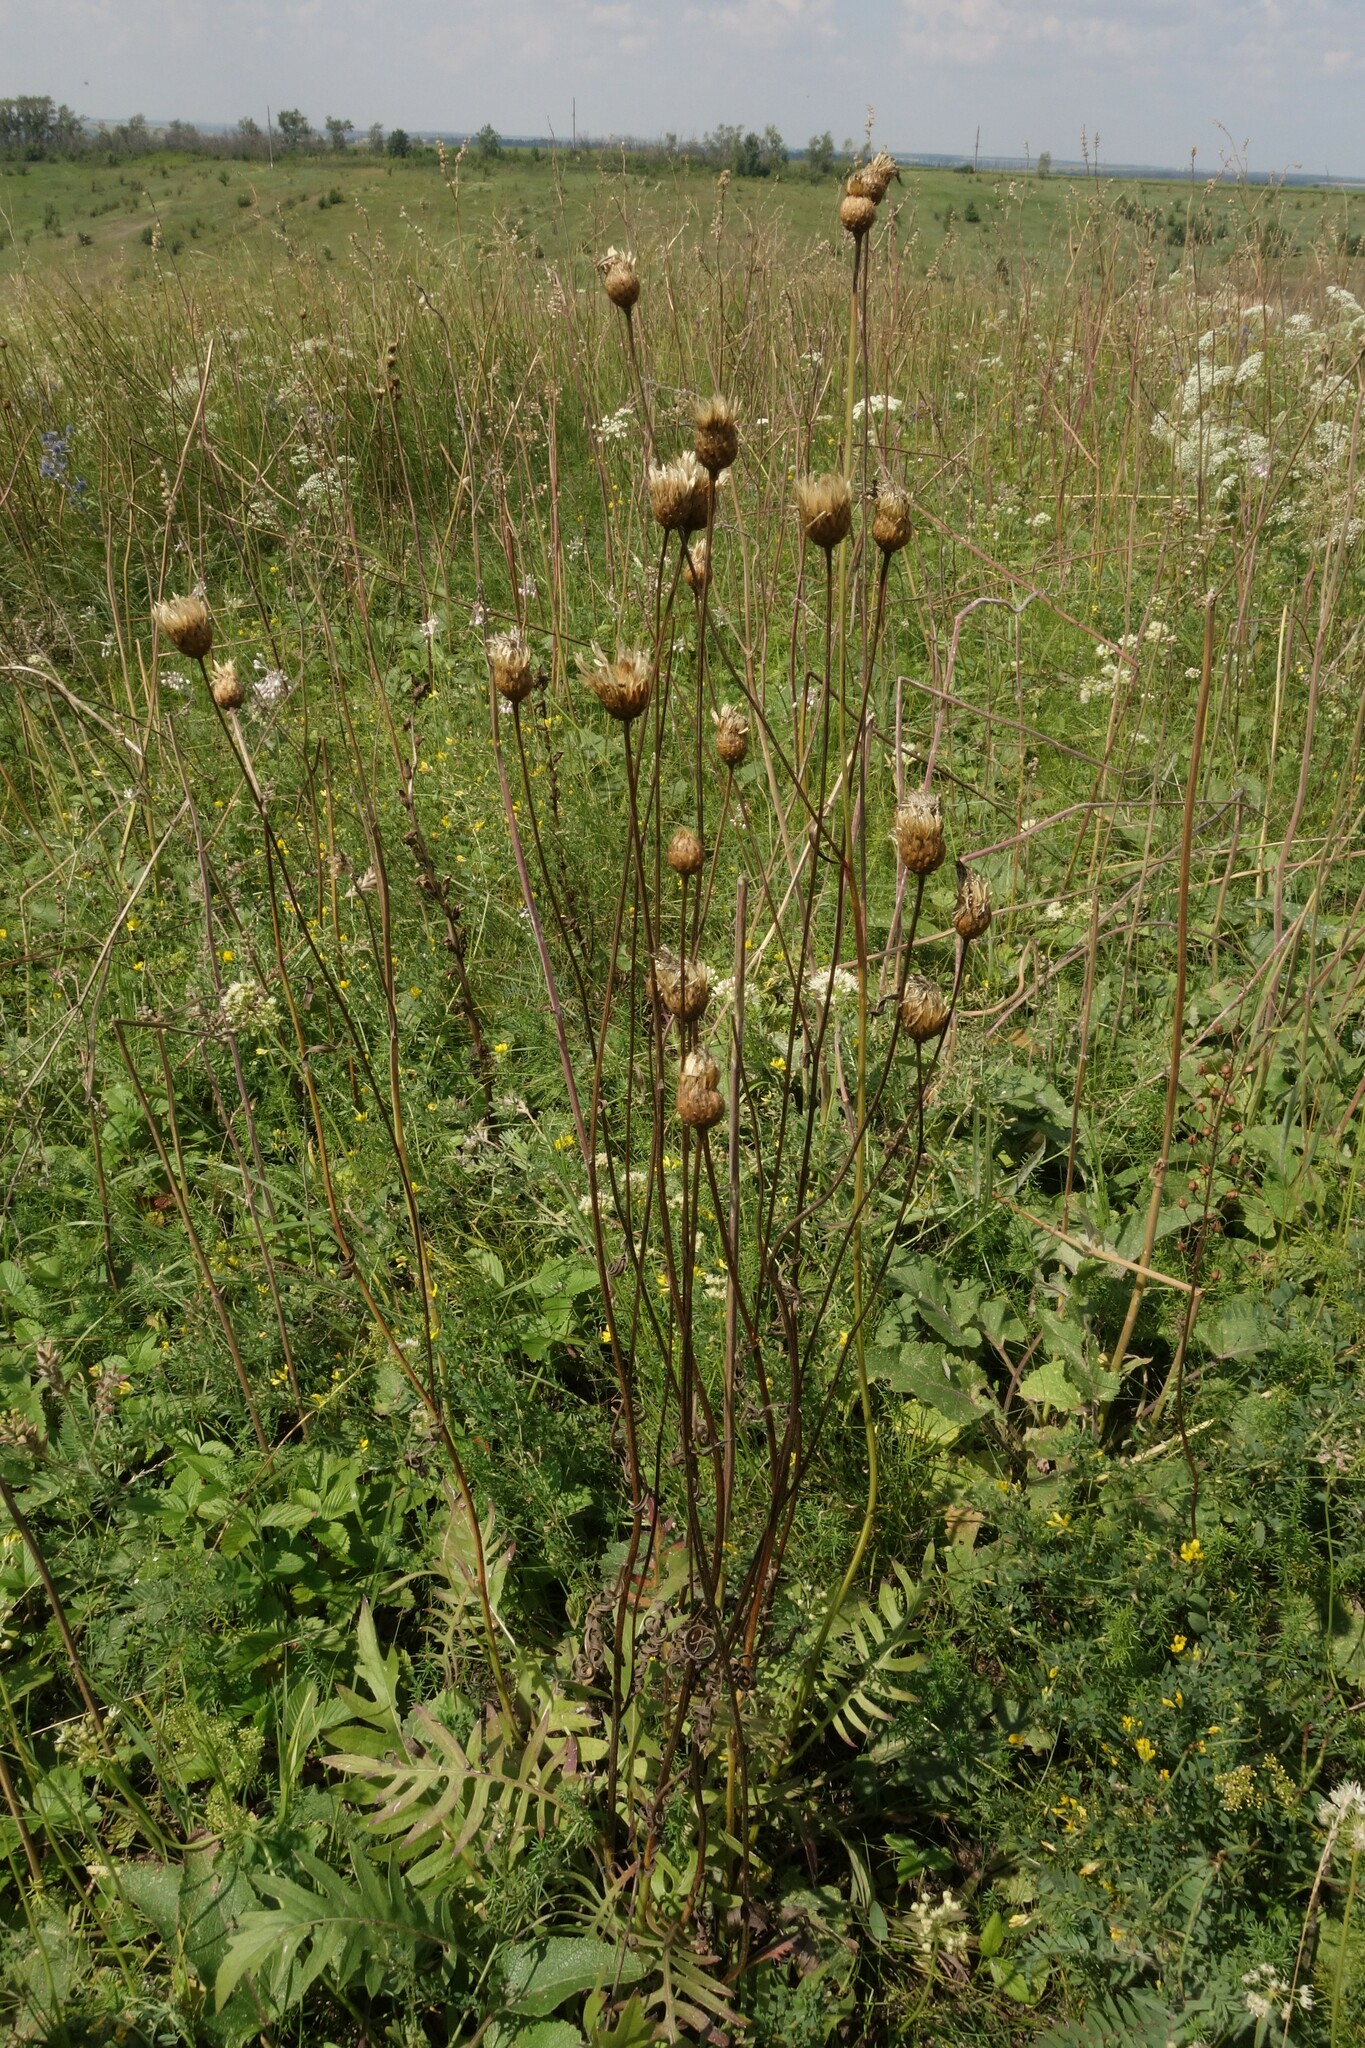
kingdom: Plantae
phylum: Tracheophyta
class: Magnoliopsida
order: Asterales
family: Asteraceae
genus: Klasea
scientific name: Klasea radiata
